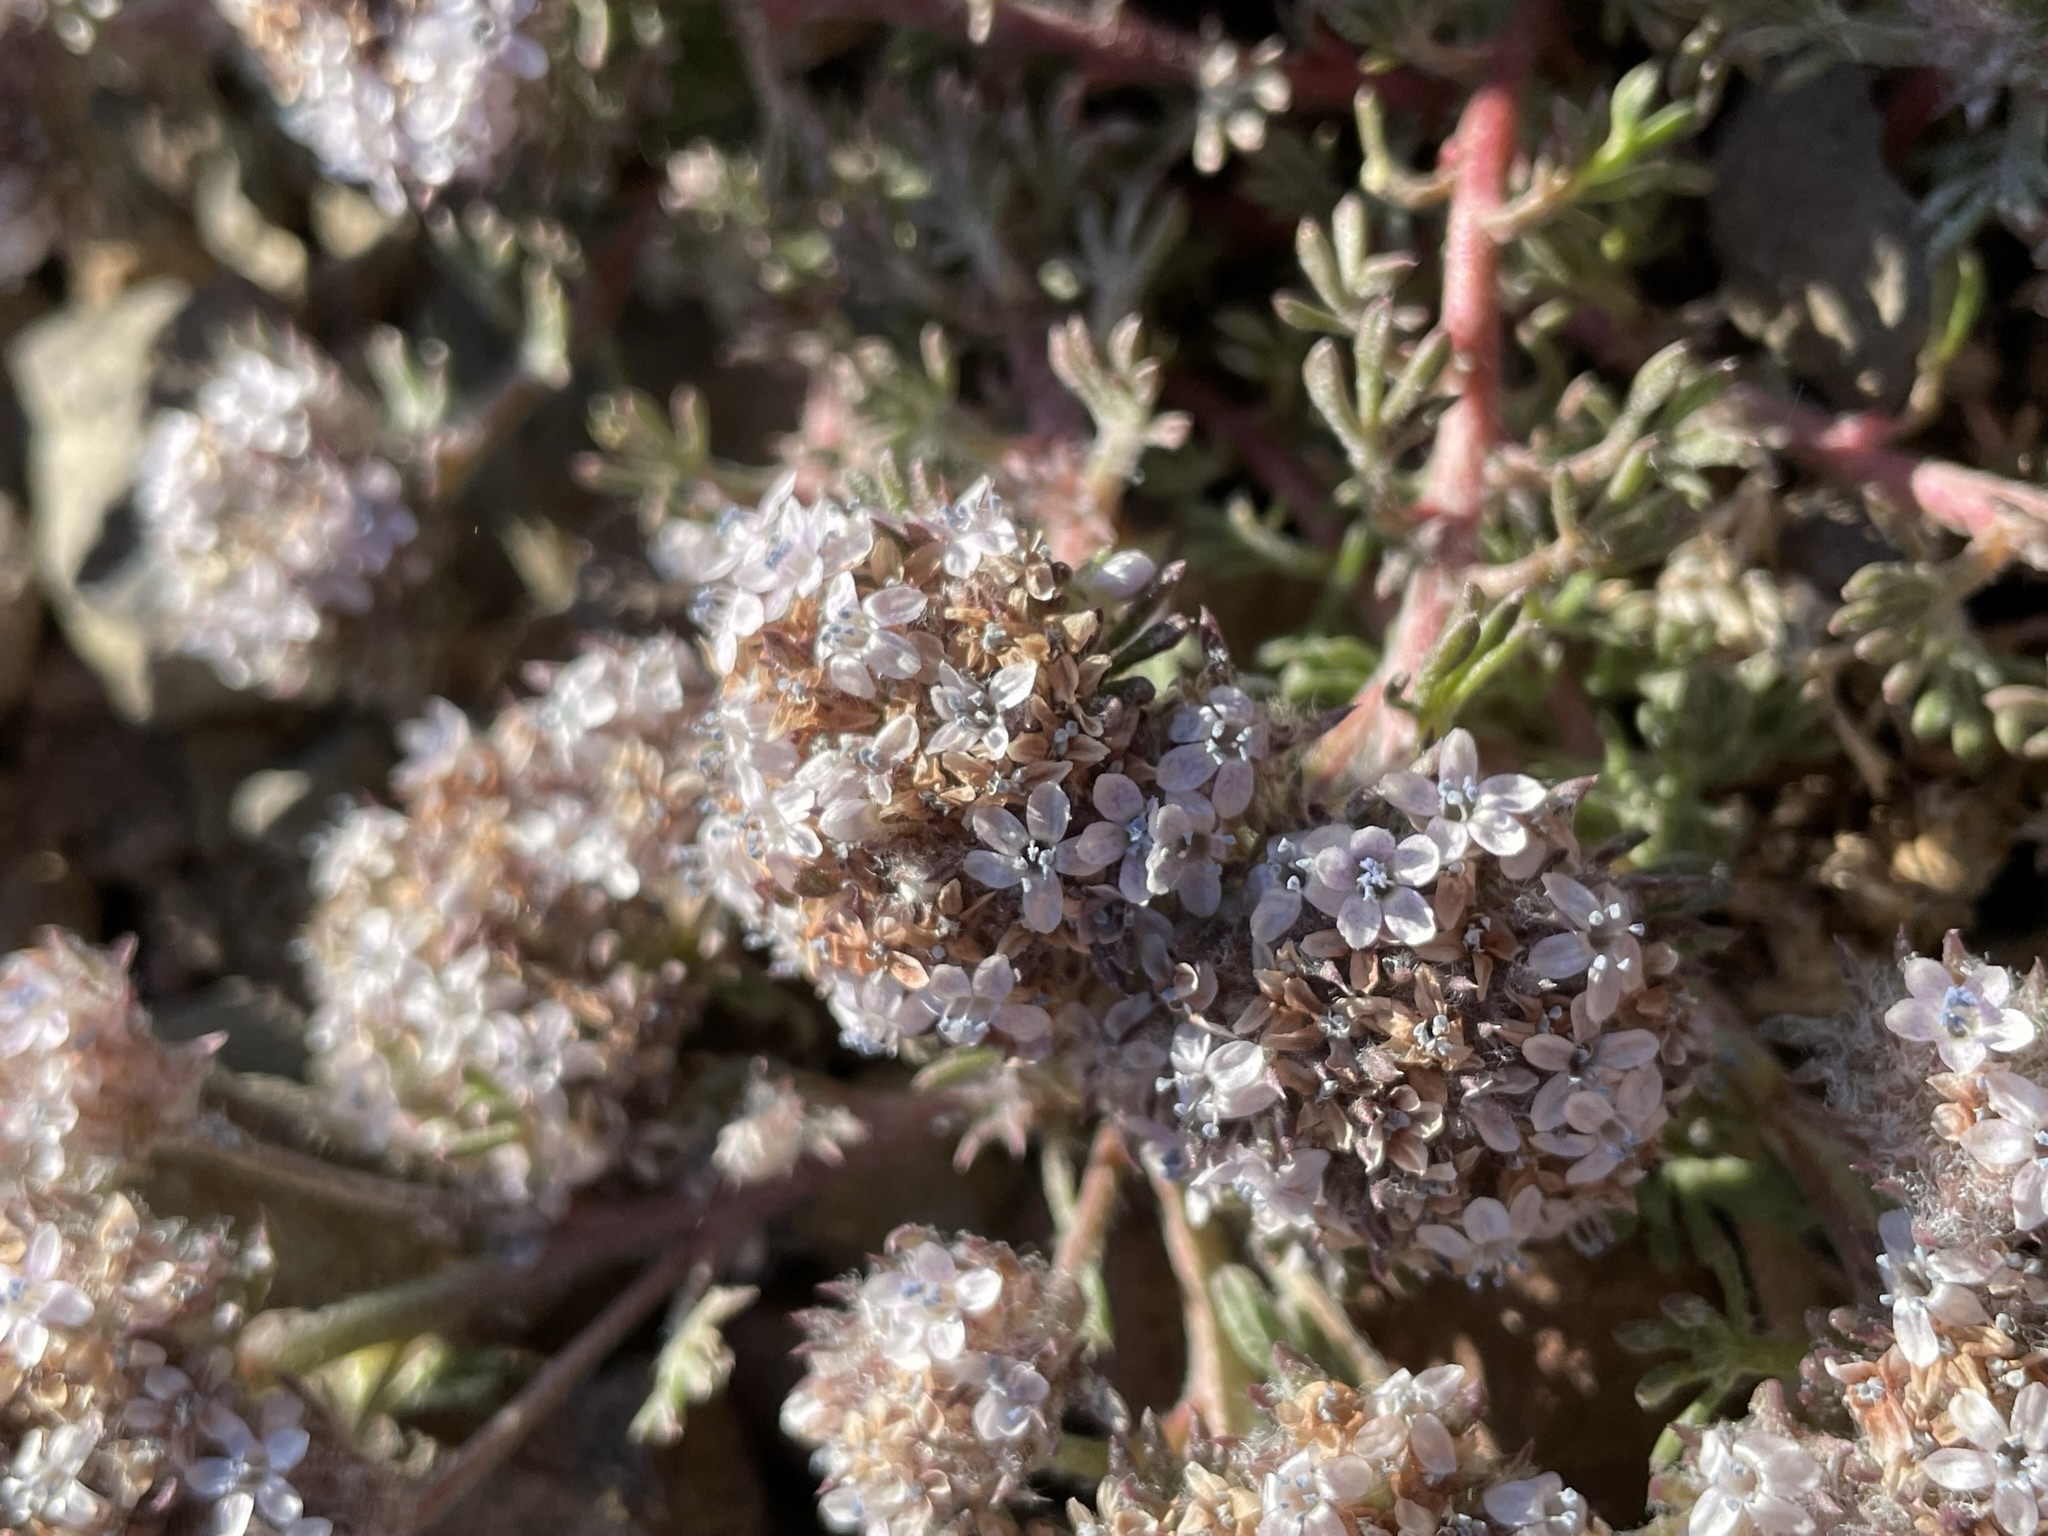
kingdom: Plantae
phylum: Tracheophyta
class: Magnoliopsida
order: Ericales
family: Polemoniaceae
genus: Ipomopsis
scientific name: Ipomopsis congesta
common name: Ball-head gilia
